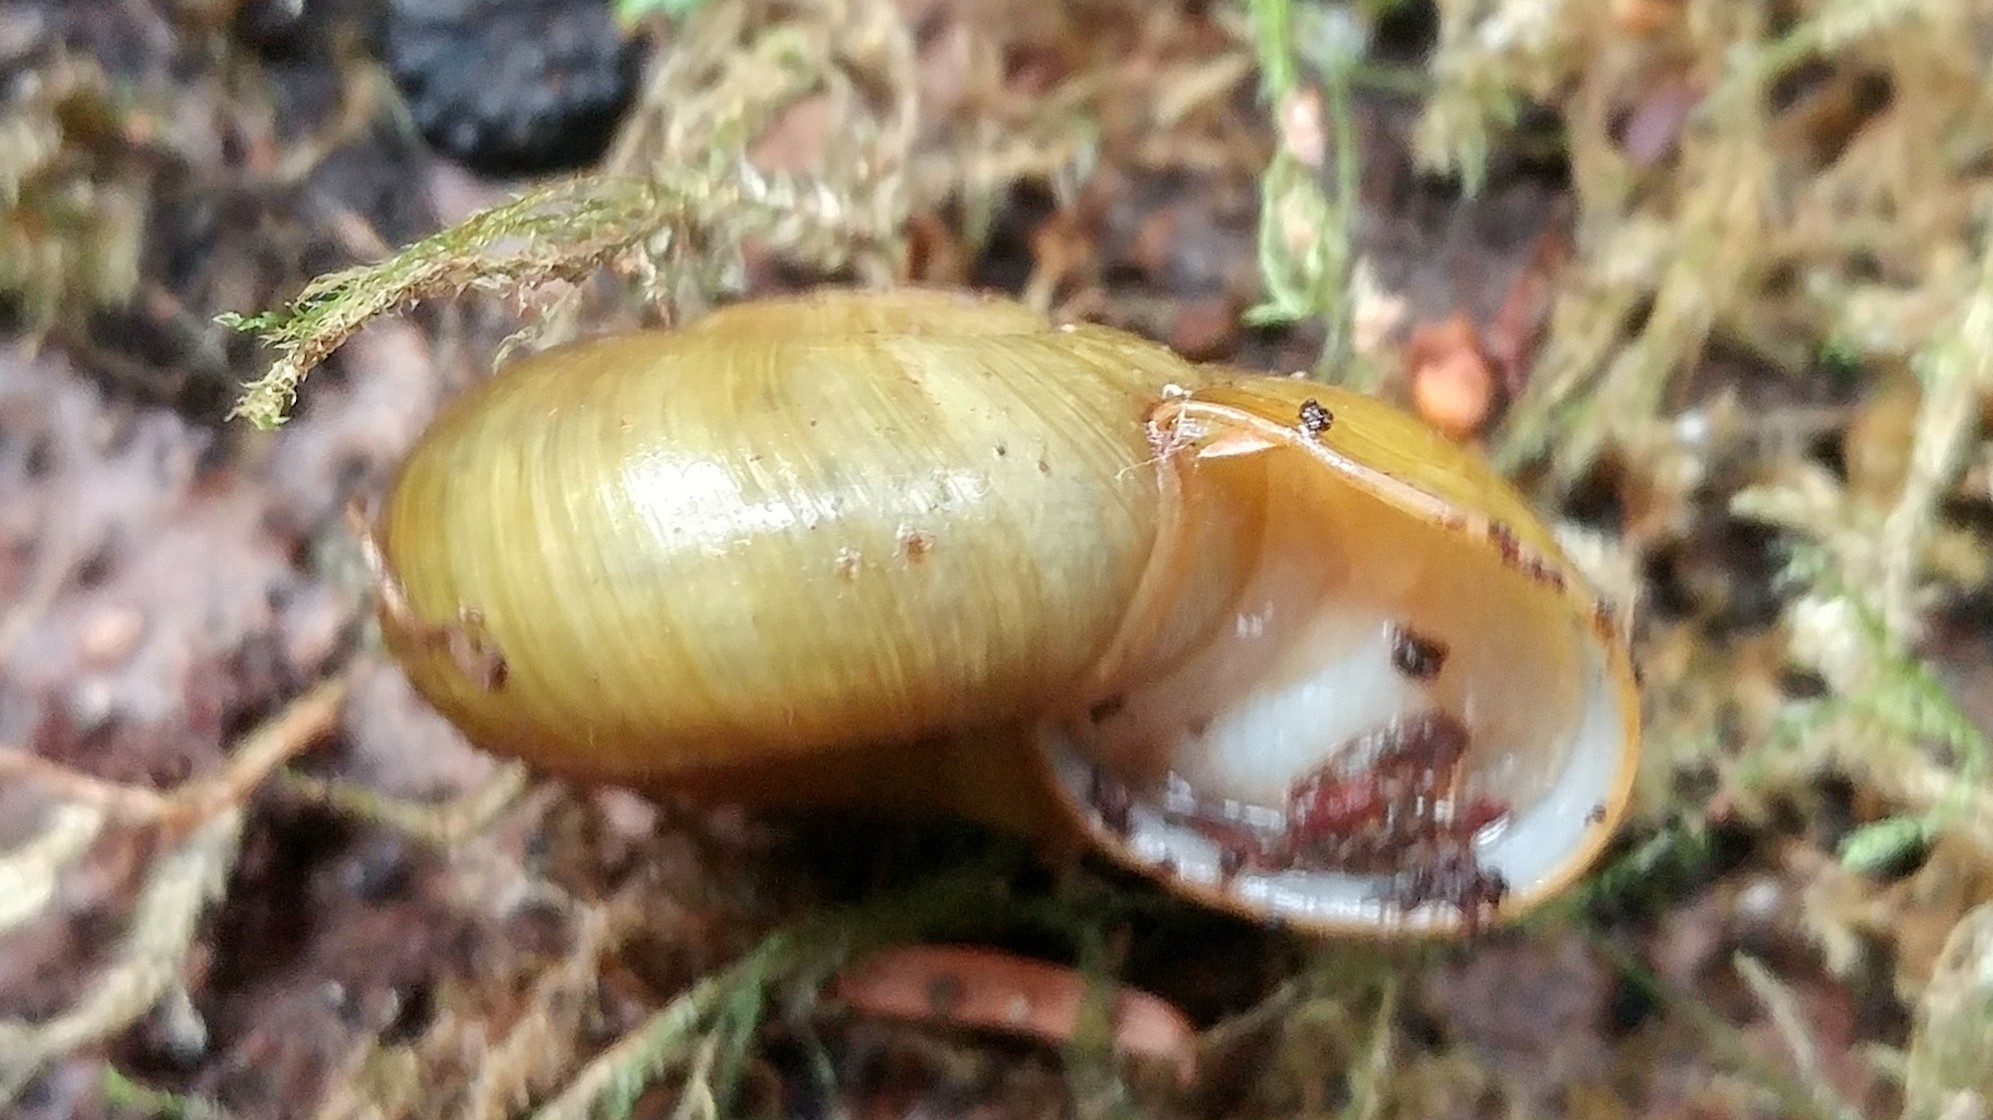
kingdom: Animalia
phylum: Mollusca
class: Gastropoda
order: Stylommatophora
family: Haplotrematidae
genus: Haplotrema
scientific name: Haplotrema vancouverense
